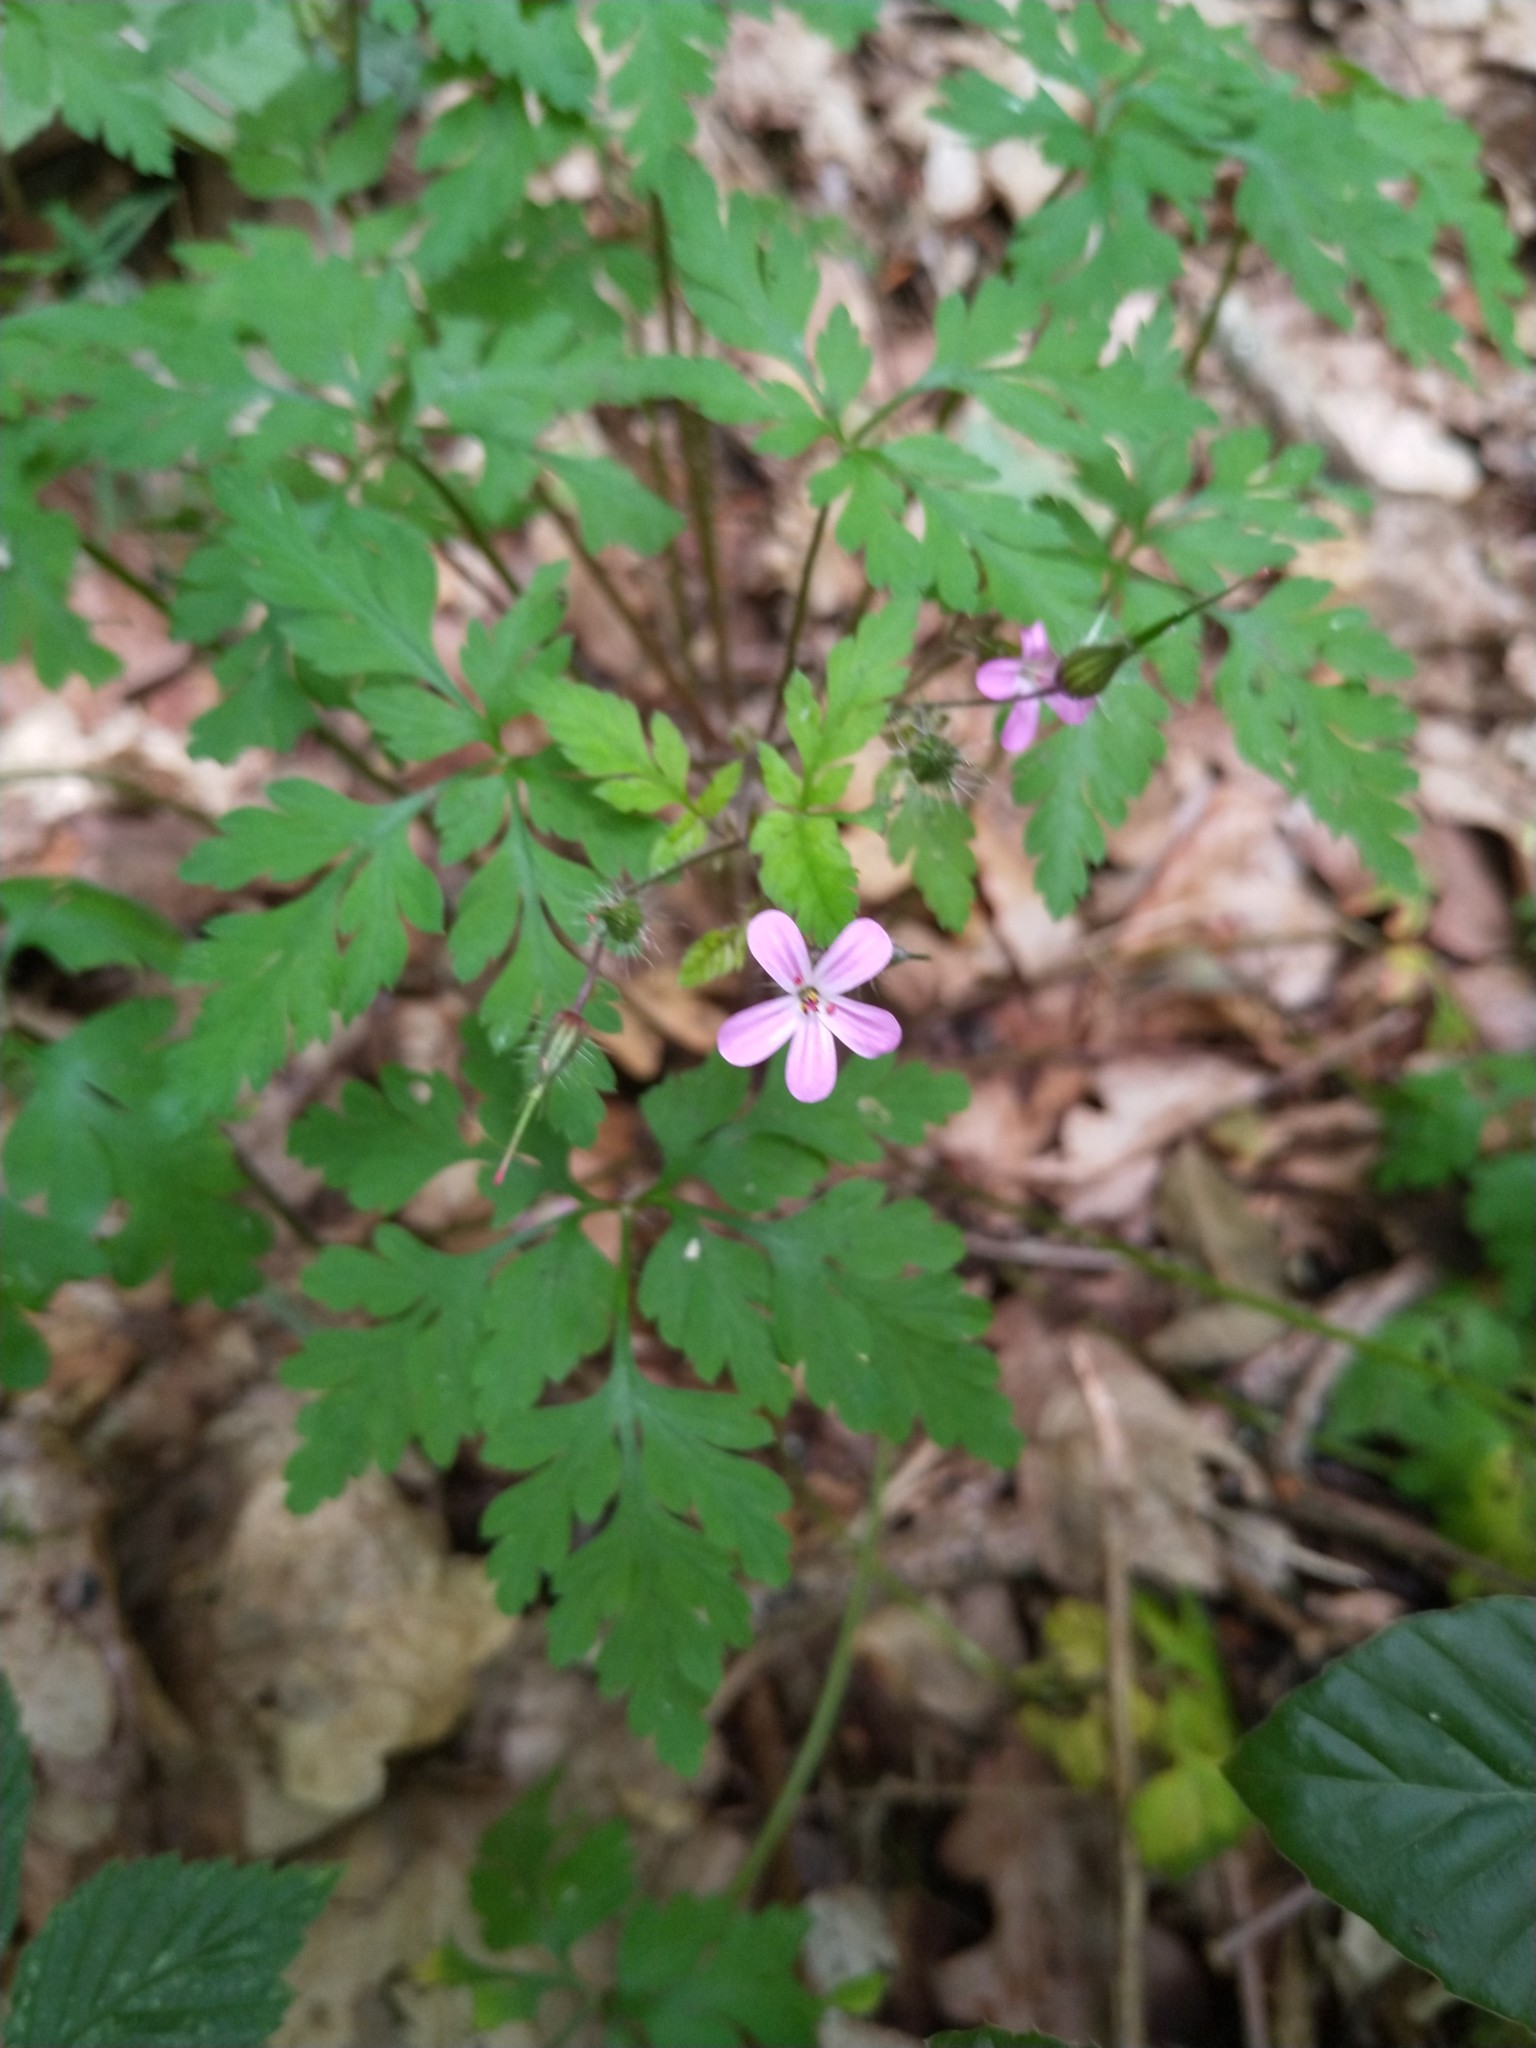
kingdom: Plantae
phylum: Tracheophyta
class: Magnoliopsida
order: Geraniales
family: Geraniaceae
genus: Geranium
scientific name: Geranium robertianum
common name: Herb-robert
